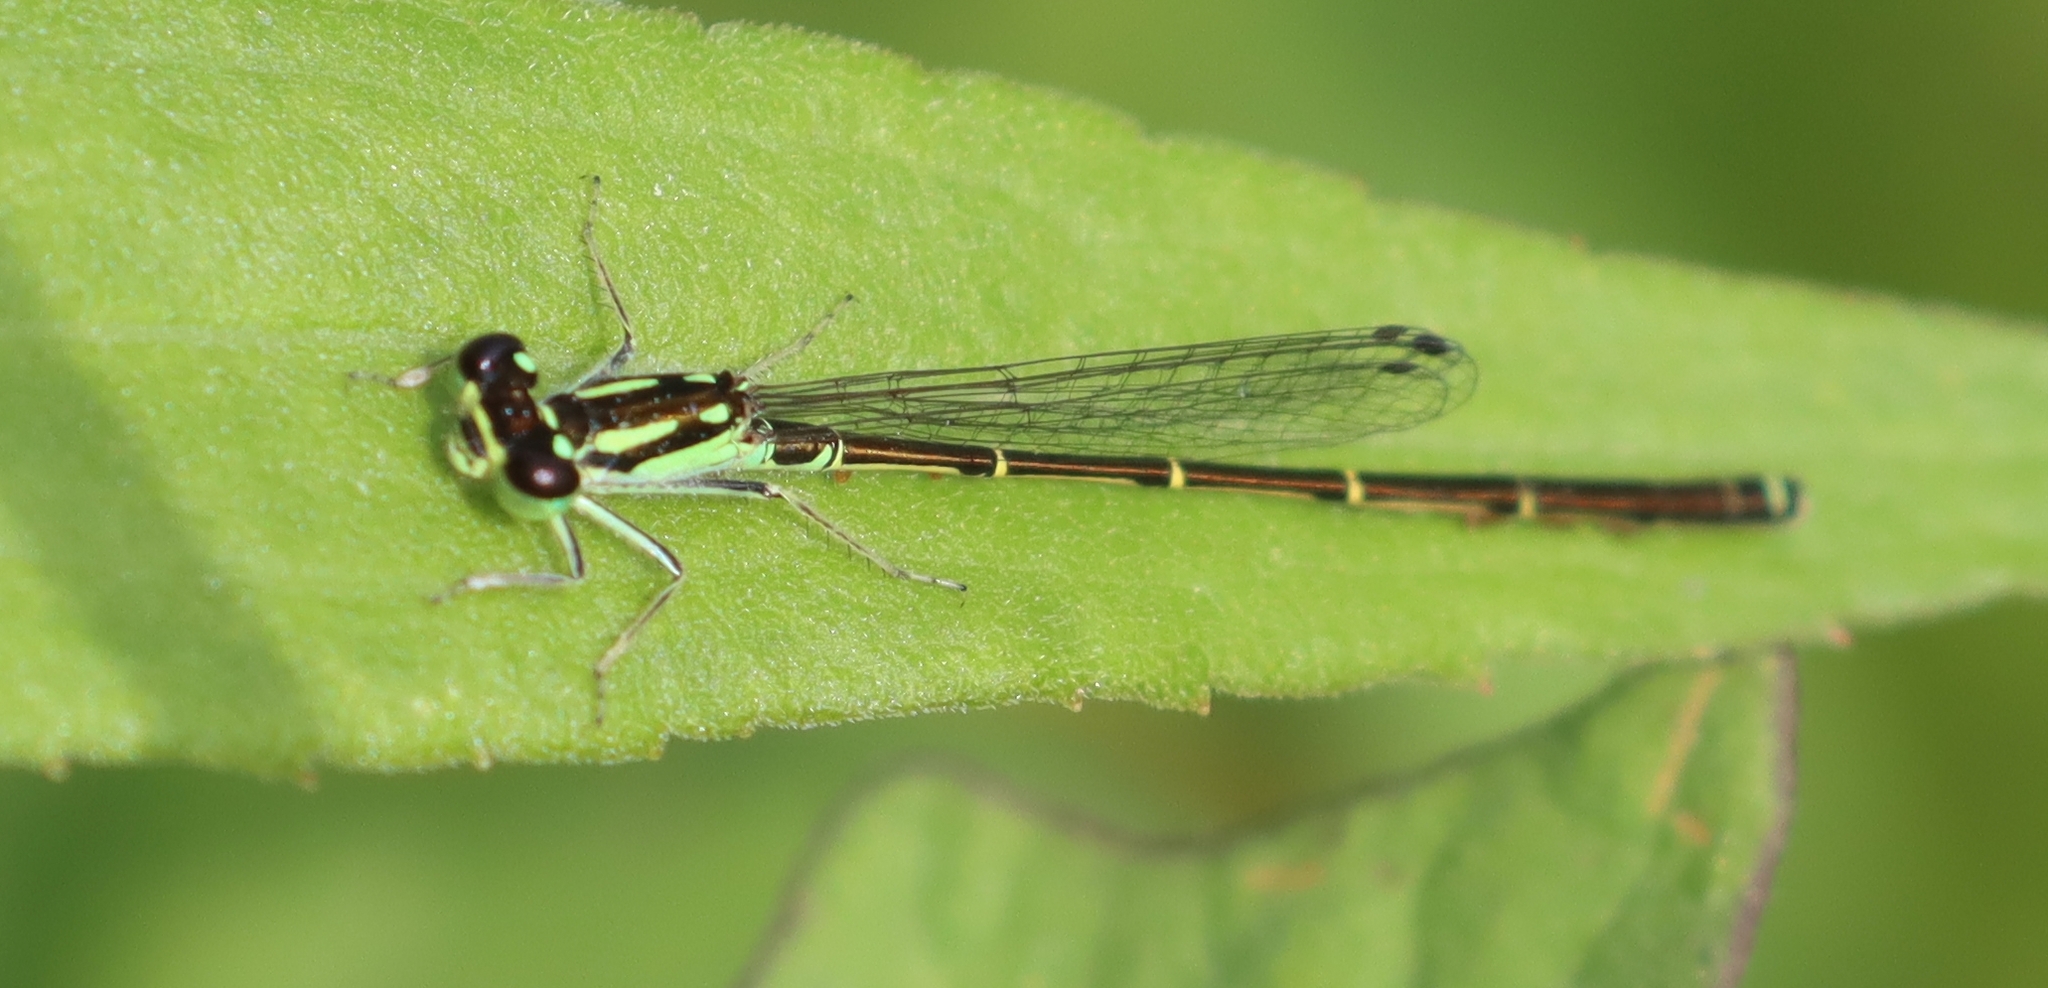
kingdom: Animalia
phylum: Arthropoda
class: Insecta
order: Odonata
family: Coenagrionidae
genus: Ischnura
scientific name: Ischnura posita
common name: Fragile forktail
